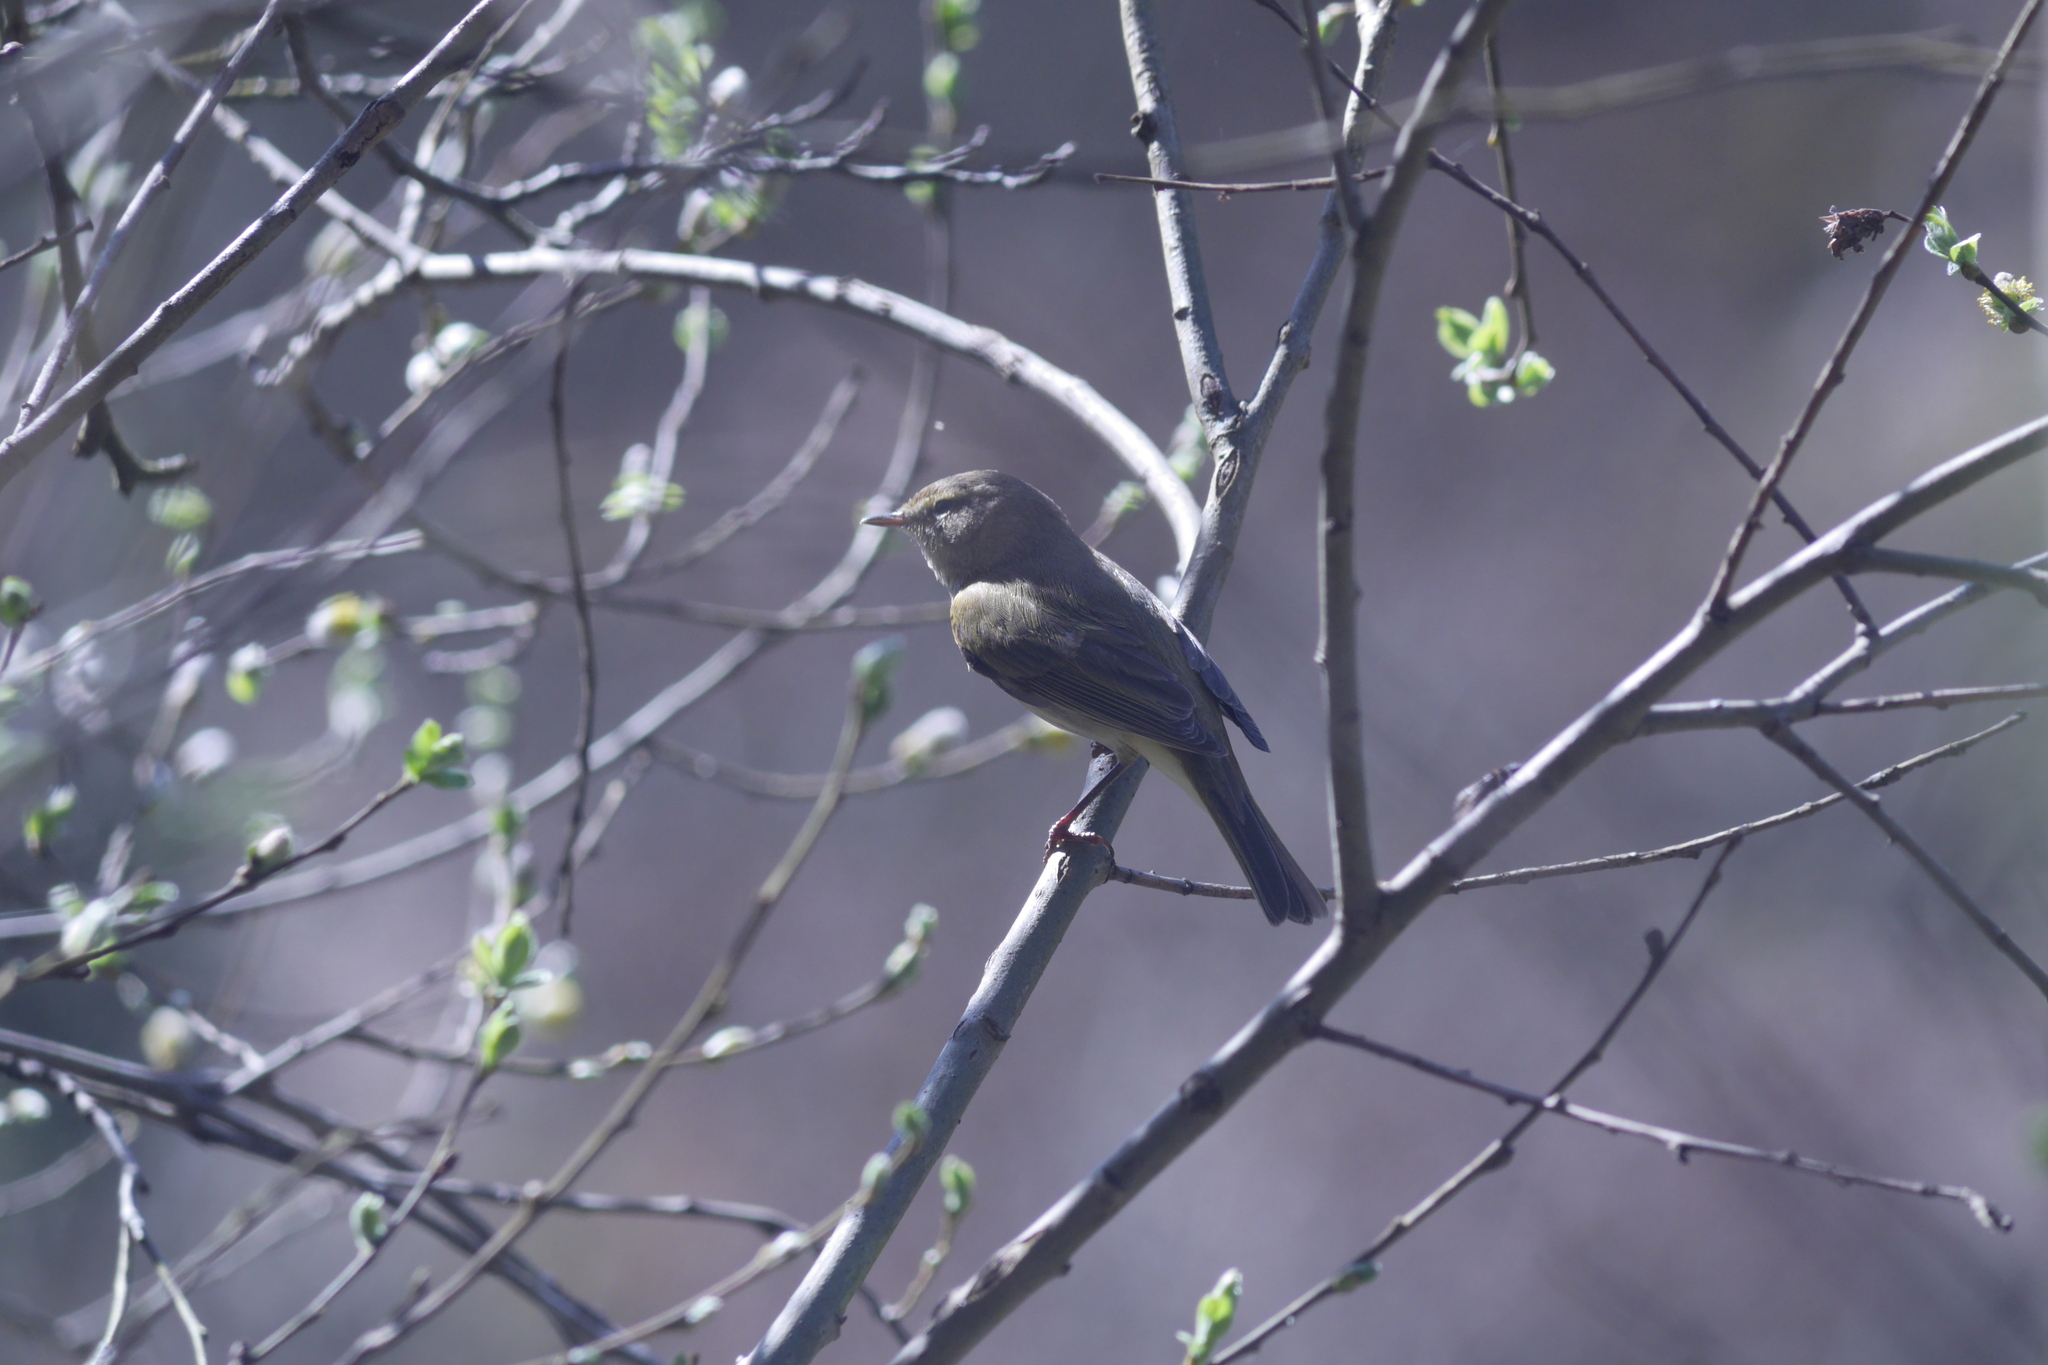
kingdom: Animalia
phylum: Chordata
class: Aves
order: Passeriformes
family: Phylloscopidae
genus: Phylloscopus
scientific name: Phylloscopus collybita
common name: Common chiffchaff
